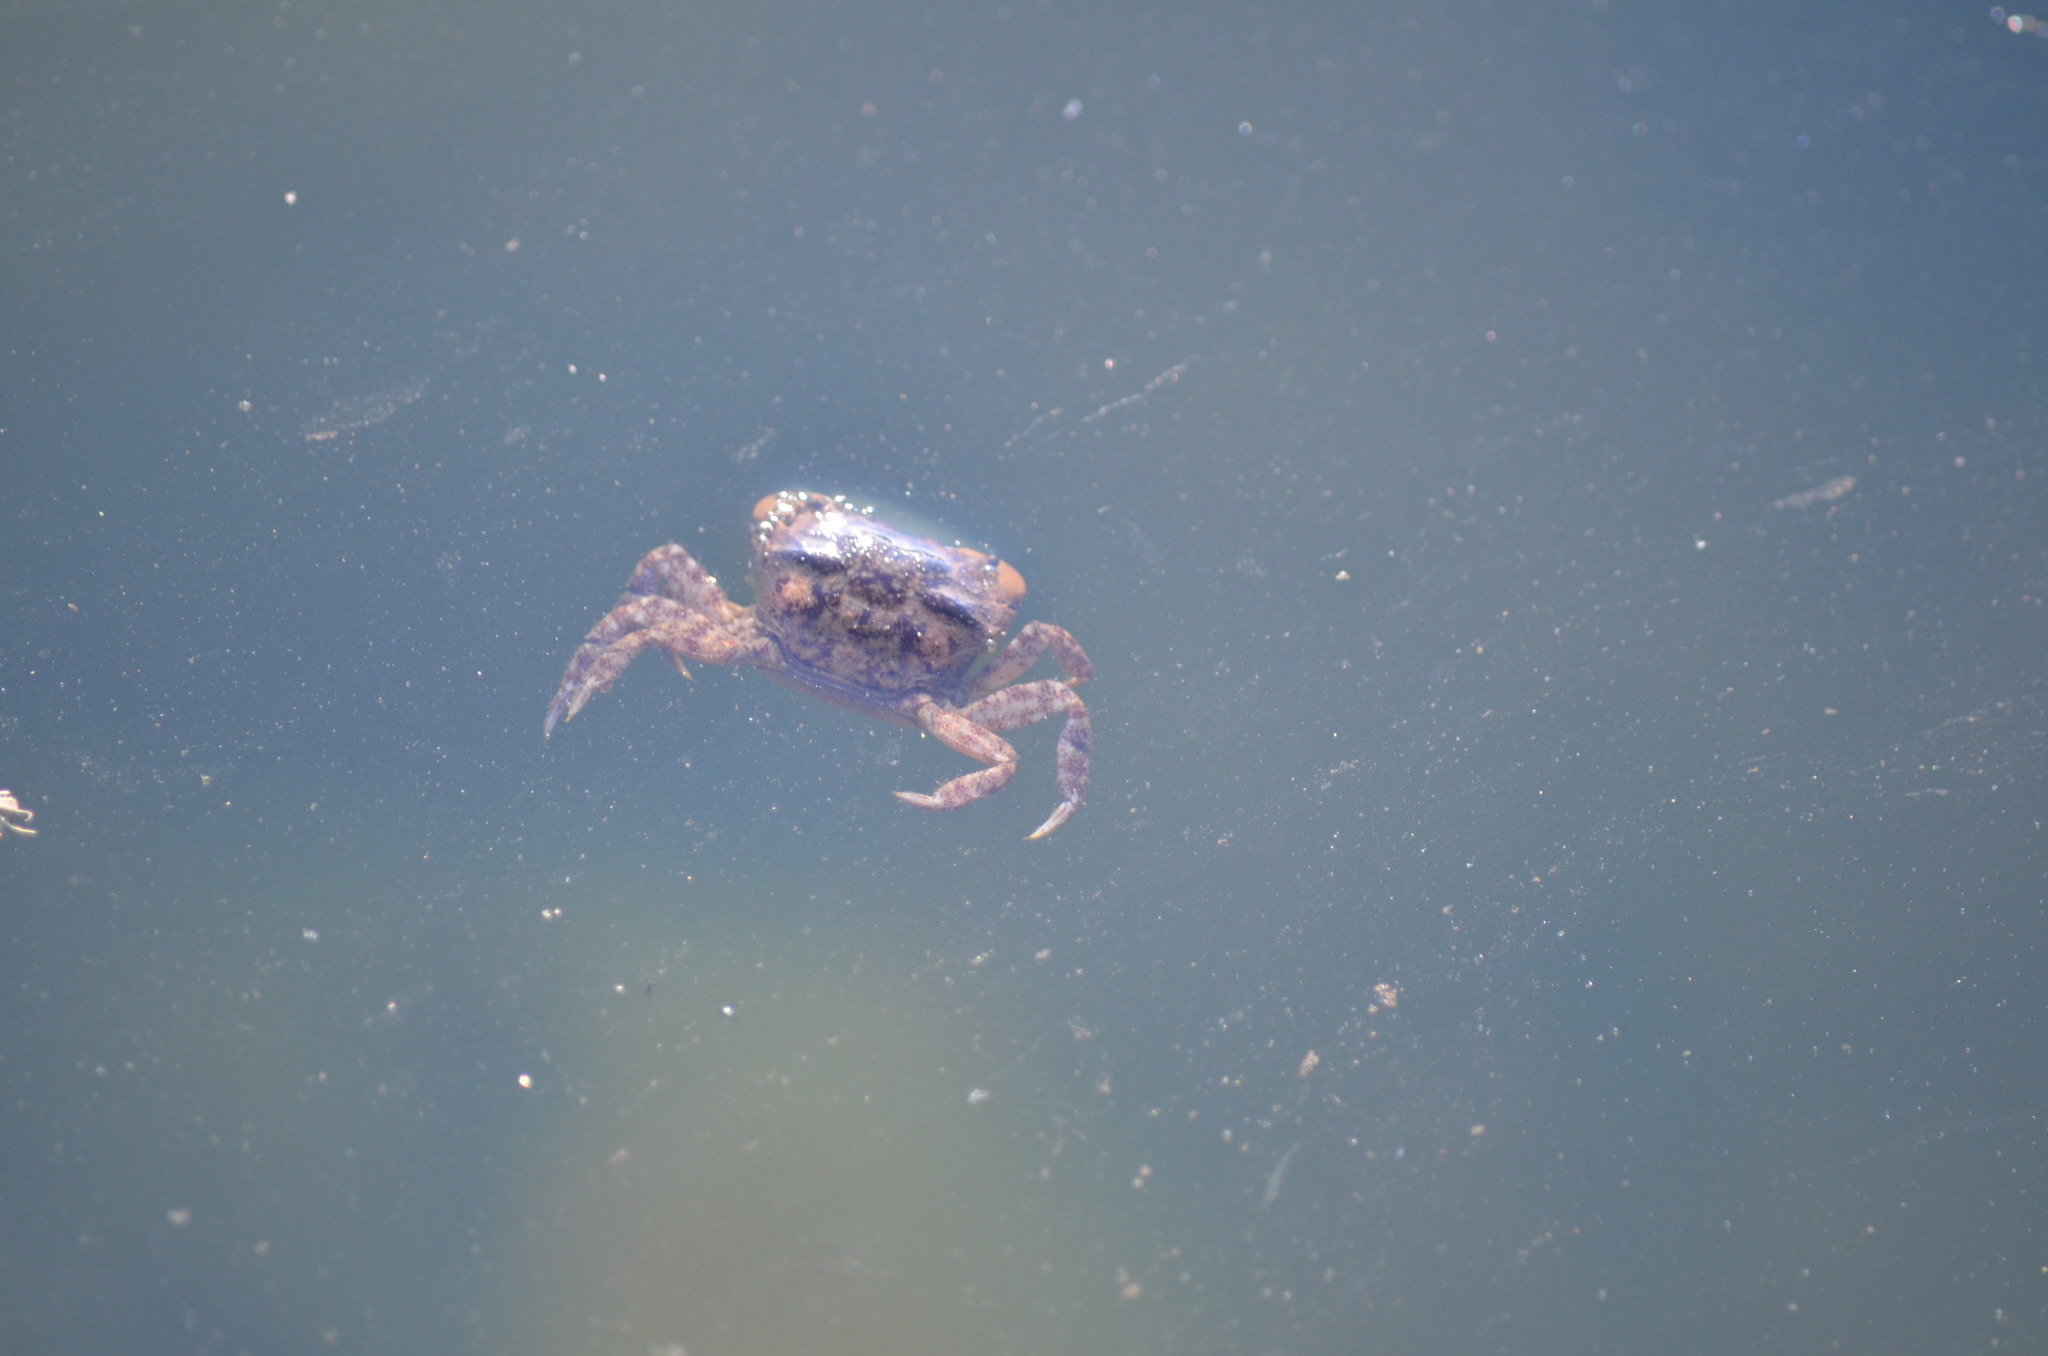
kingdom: Animalia
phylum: Arthropoda
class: Malacostraca
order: Decapoda
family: Varunidae
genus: Hemigrapsus
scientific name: Hemigrapsus oregonensis
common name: Yellow shore crab
